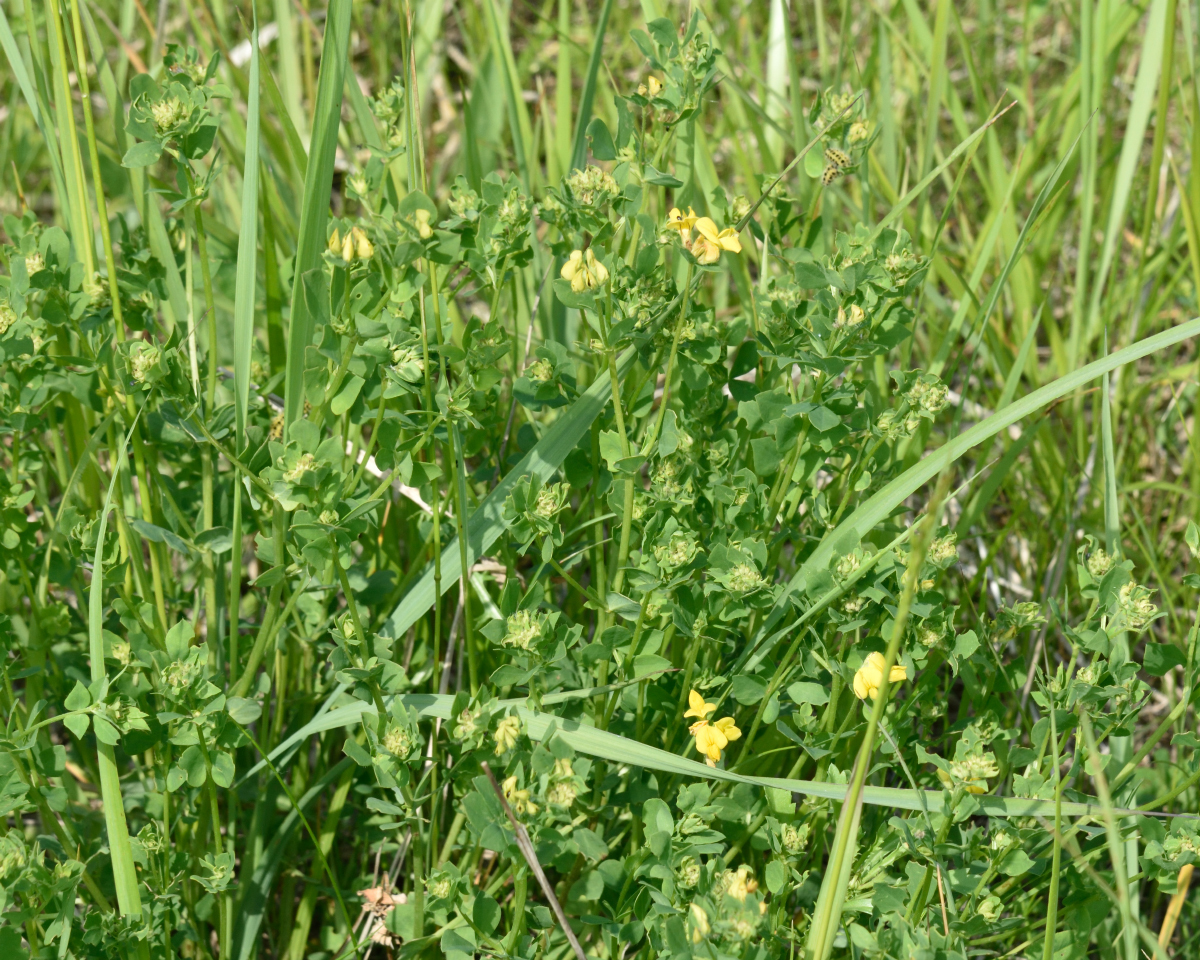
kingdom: Plantae
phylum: Tracheophyta
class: Magnoliopsida
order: Fabales
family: Fabaceae
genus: Lotus
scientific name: Lotus corniculatus
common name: Common bird's-foot-trefoil
